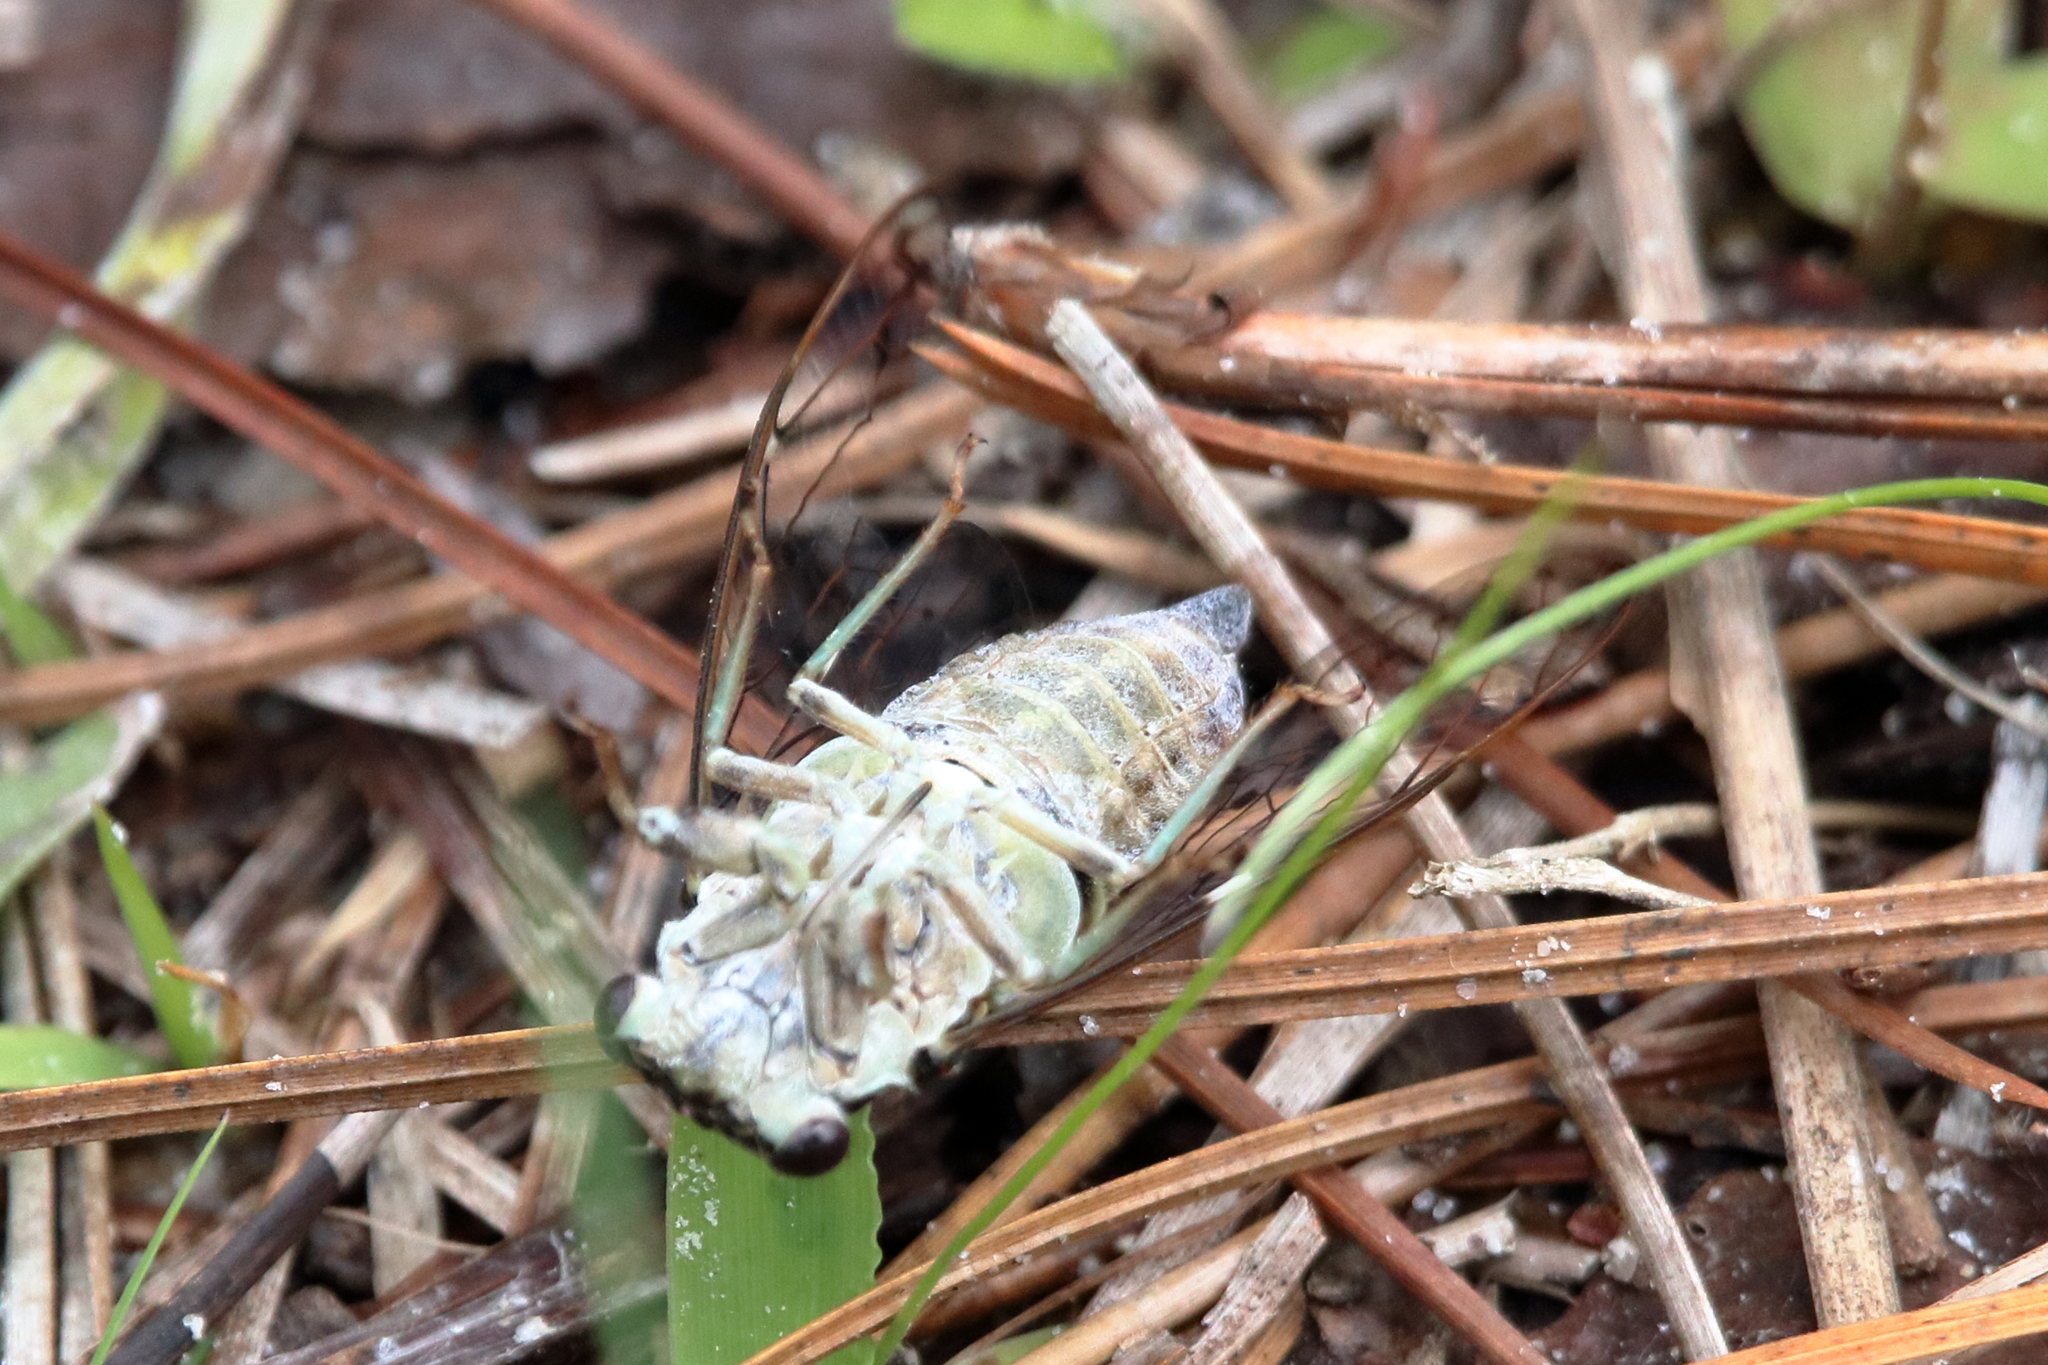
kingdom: Animalia
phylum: Arthropoda
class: Insecta
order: Hemiptera
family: Cicadidae
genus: Neocicada
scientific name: Neocicada hieroglyphica
